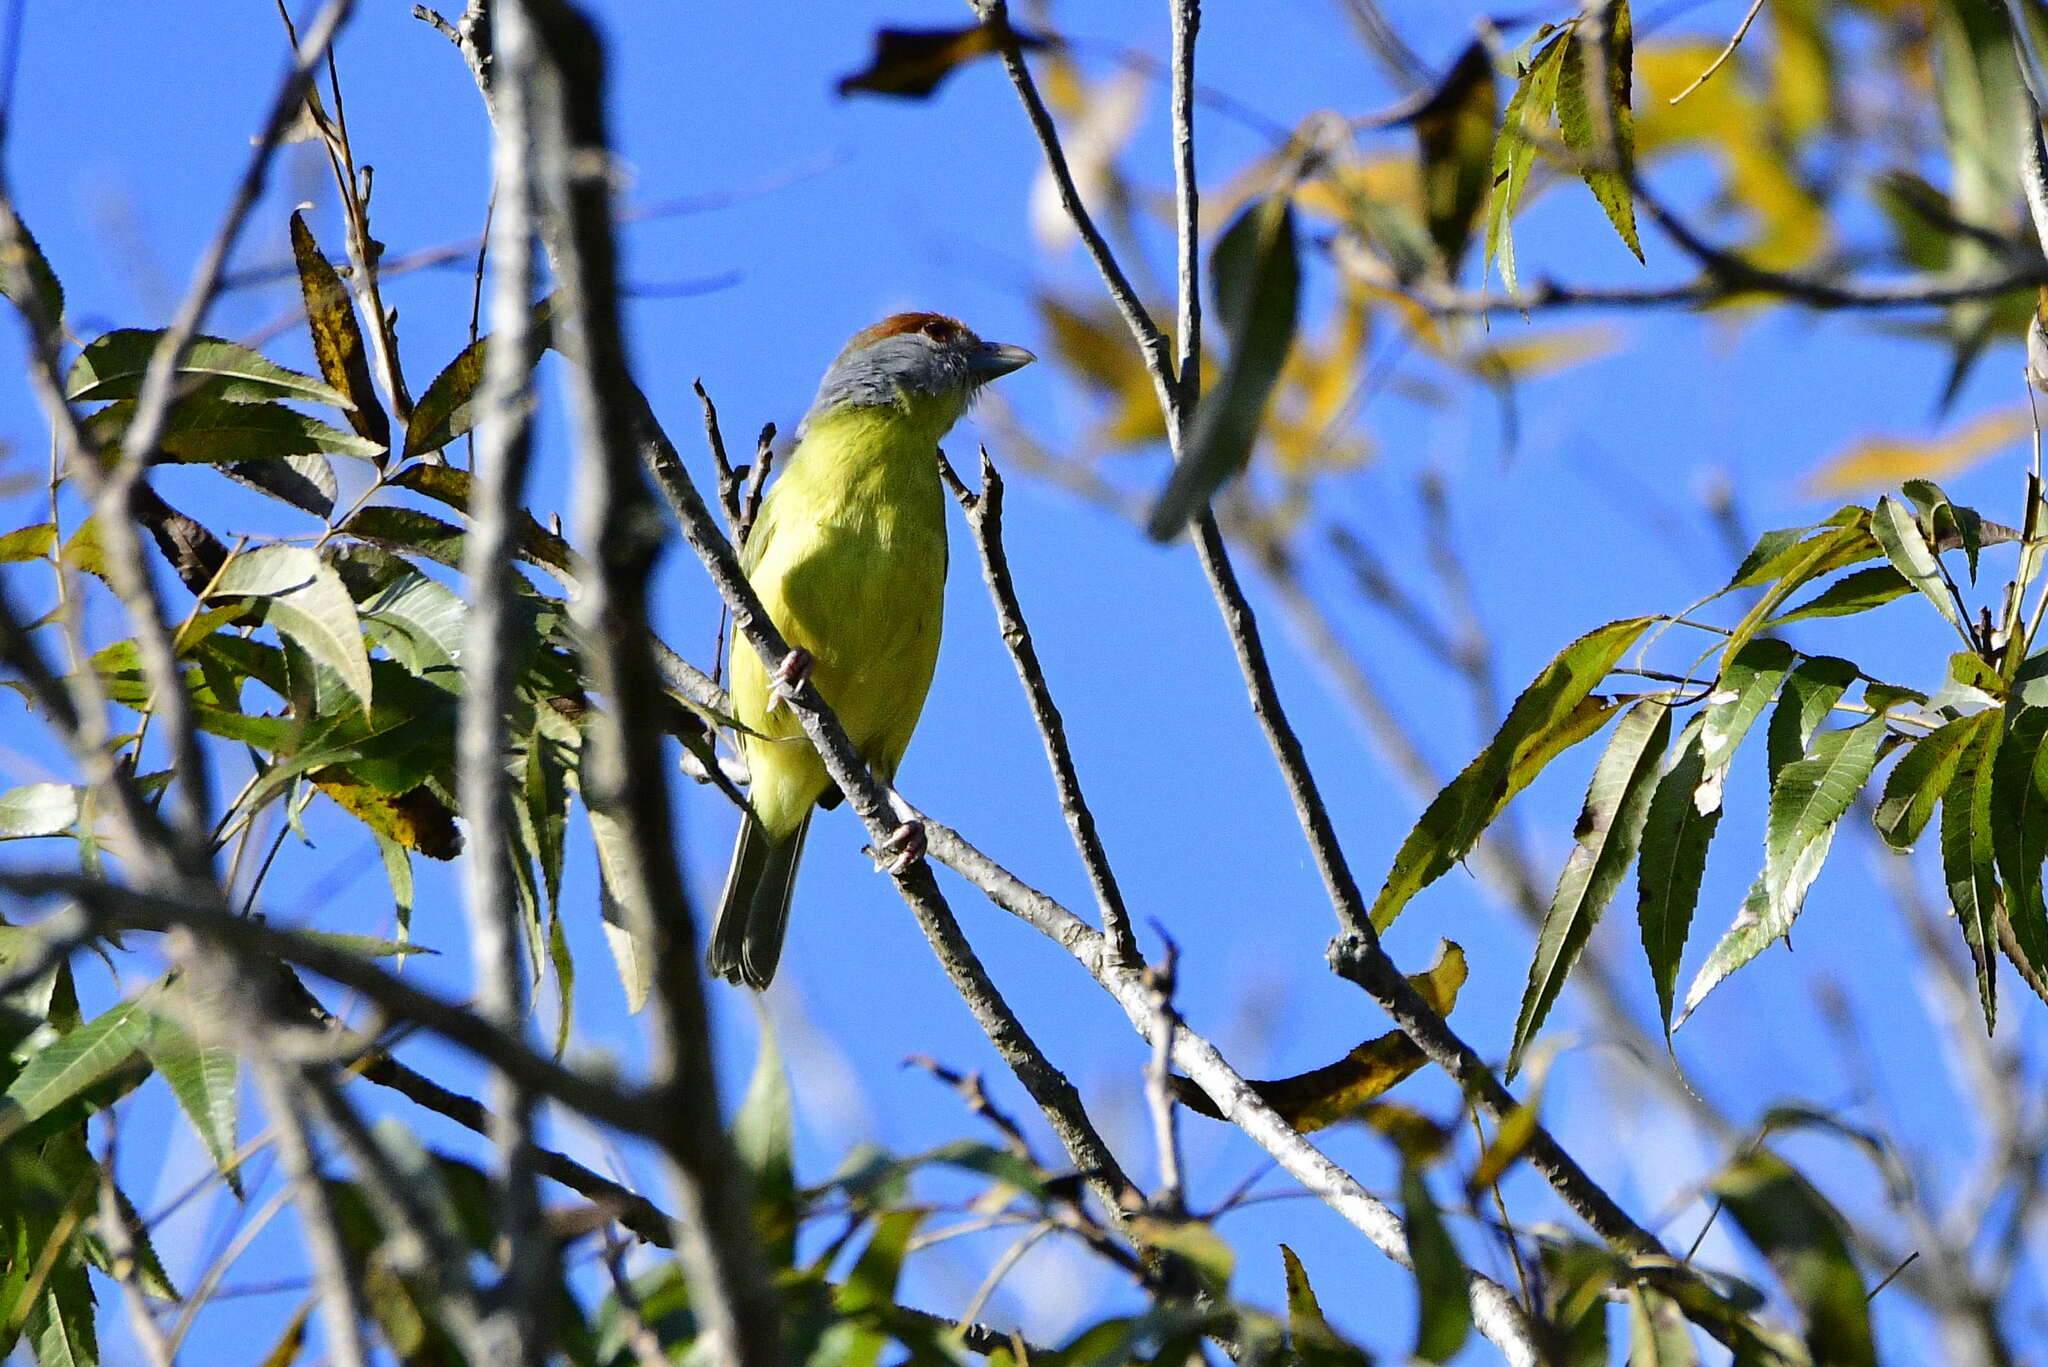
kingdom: Animalia
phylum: Chordata
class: Aves
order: Passeriformes
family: Vireonidae
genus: Cyclarhis
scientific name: Cyclarhis gujanensis
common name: Rufous-browed peppershrike
